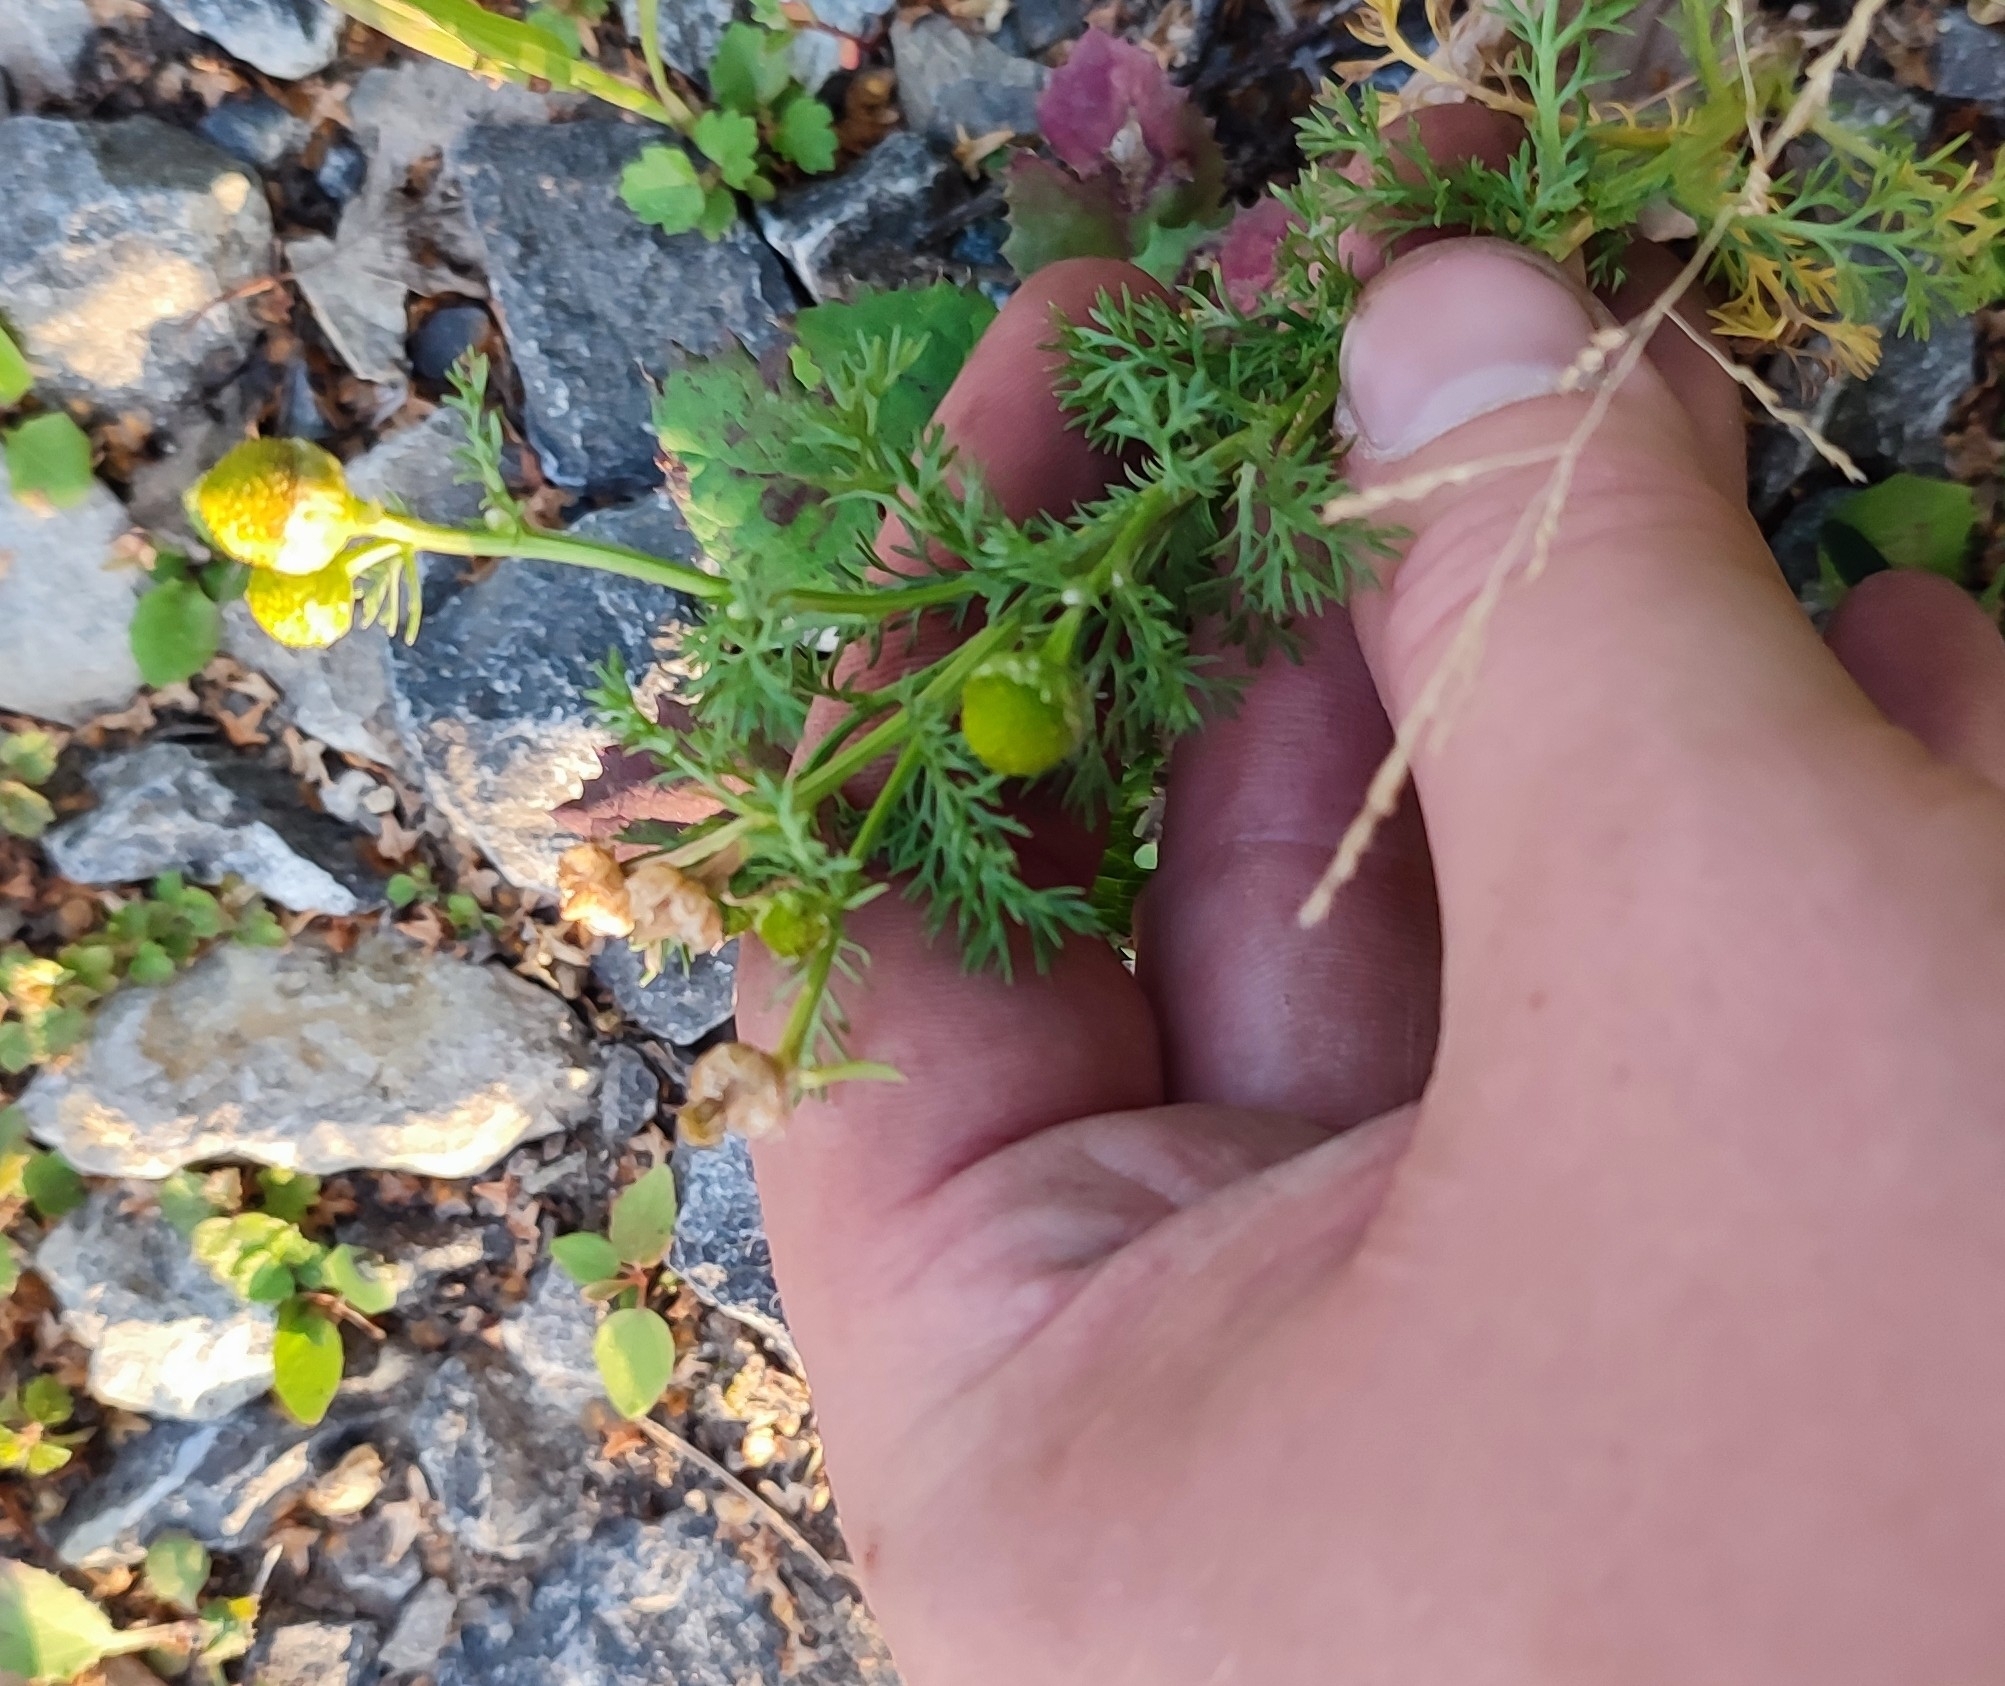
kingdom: Plantae
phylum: Tracheophyta
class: Magnoliopsida
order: Asterales
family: Asteraceae
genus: Matricaria
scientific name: Matricaria discoidea
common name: Disc mayweed
